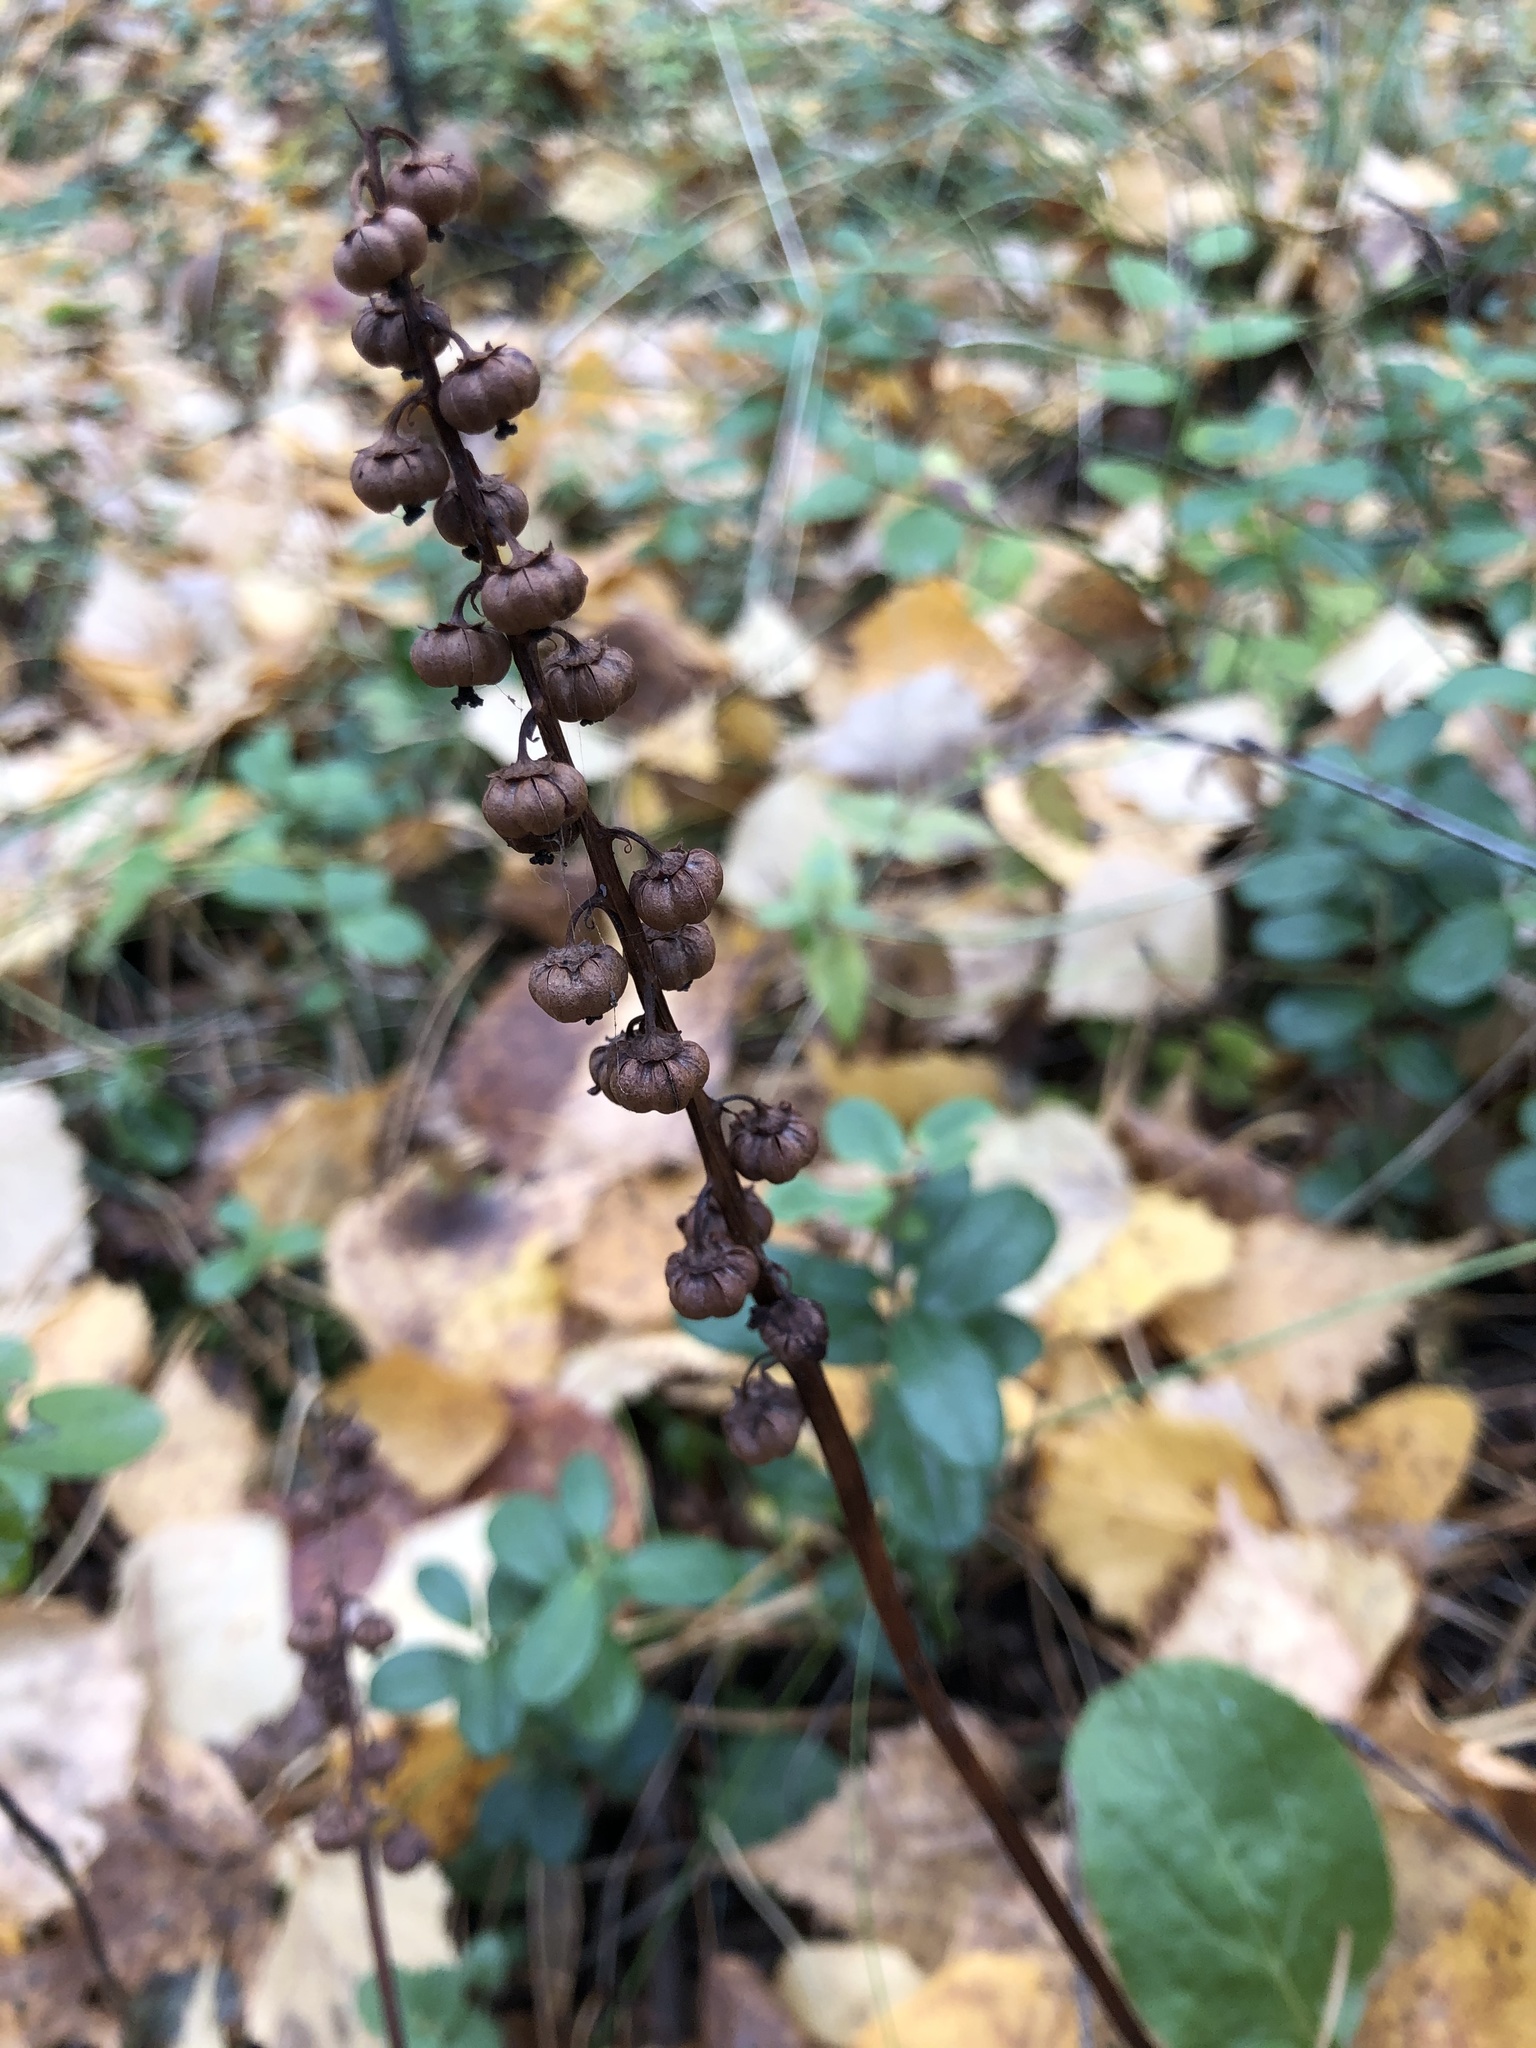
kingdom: Plantae
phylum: Tracheophyta
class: Magnoliopsida
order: Ericales
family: Ericaceae
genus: Pyrola
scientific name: Pyrola minor
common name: Common wintergreen
